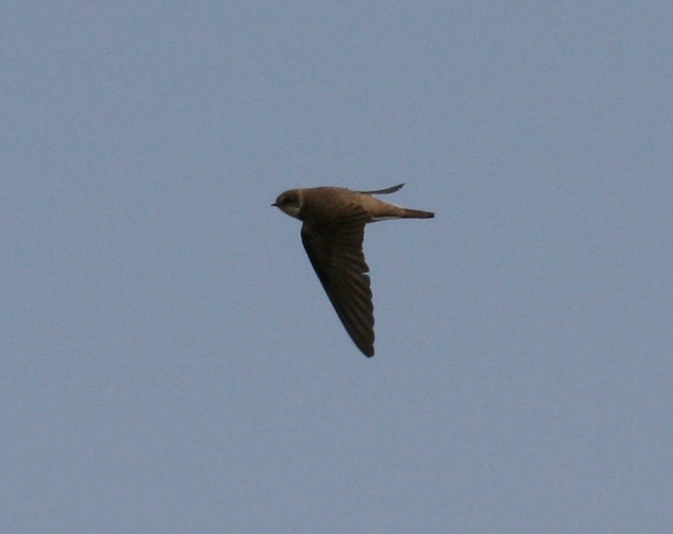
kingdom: Animalia
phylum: Chordata
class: Aves
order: Passeriformes
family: Hirundinidae
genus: Riparia
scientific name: Riparia riparia
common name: Sand martin
